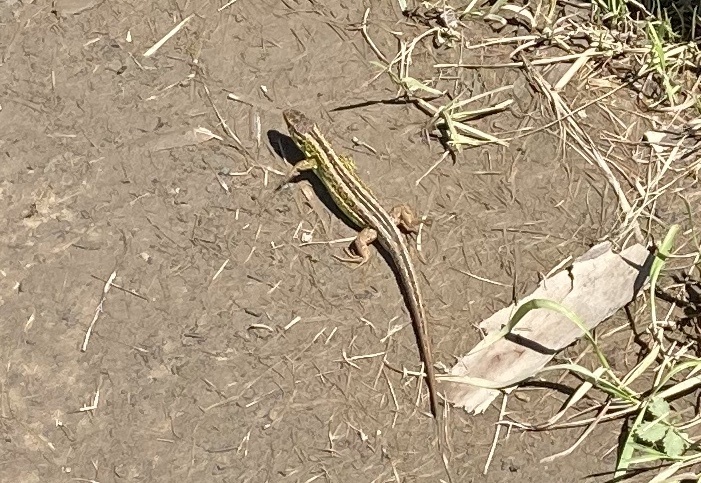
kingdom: Animalia
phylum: Chordata
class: Squamata
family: Lacertidae
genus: Lacerta
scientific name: Lacerta agilis
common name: Sand lizard
